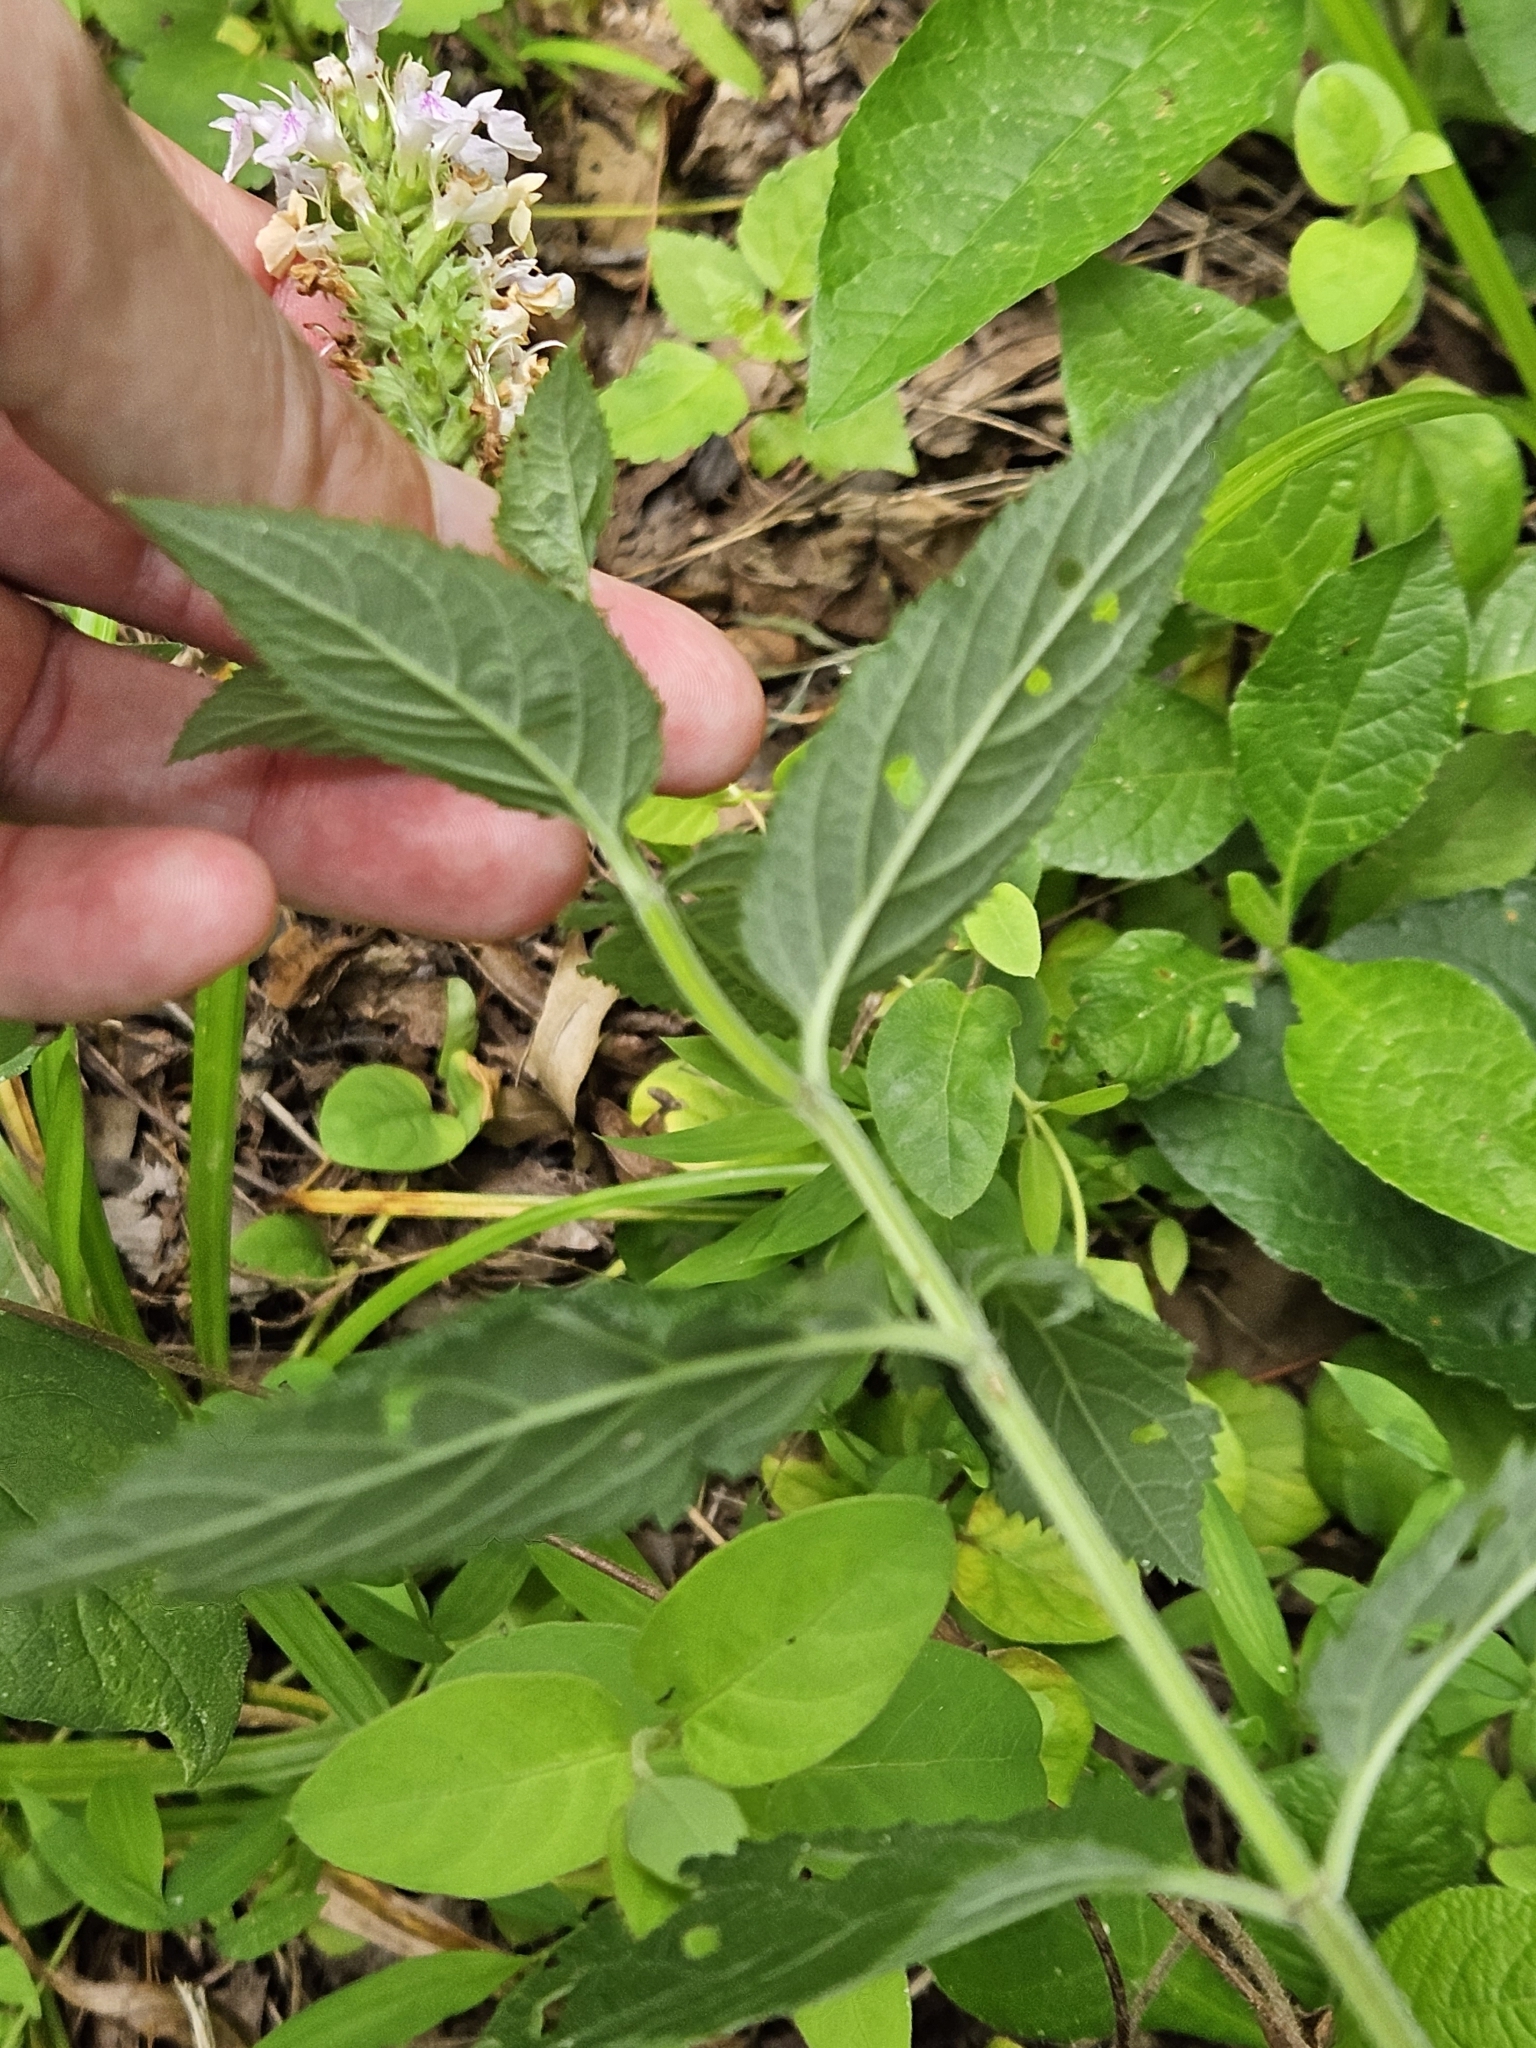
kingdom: Plantae
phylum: Tracheophyta
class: Magnoliopsida
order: Lamiales
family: Lamiaceae
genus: Teucrium
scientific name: Teucrium canadense
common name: American germander
